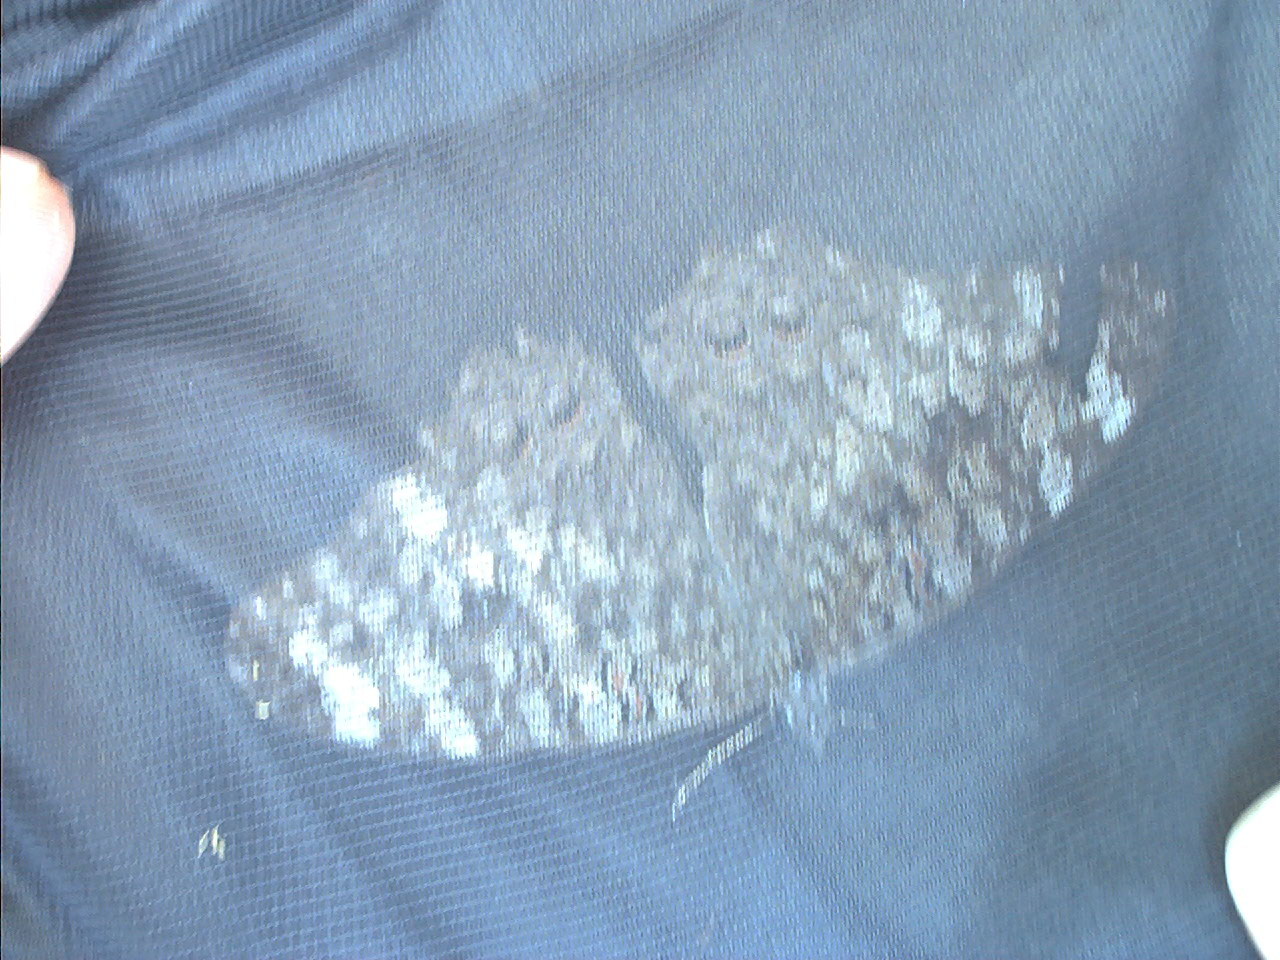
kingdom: Animalia
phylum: Arthropoda
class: Insecta
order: Lepidoptera
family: Nymphalidae
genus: Hamadryas
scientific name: Hamadryas februa
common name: Gray cracker
